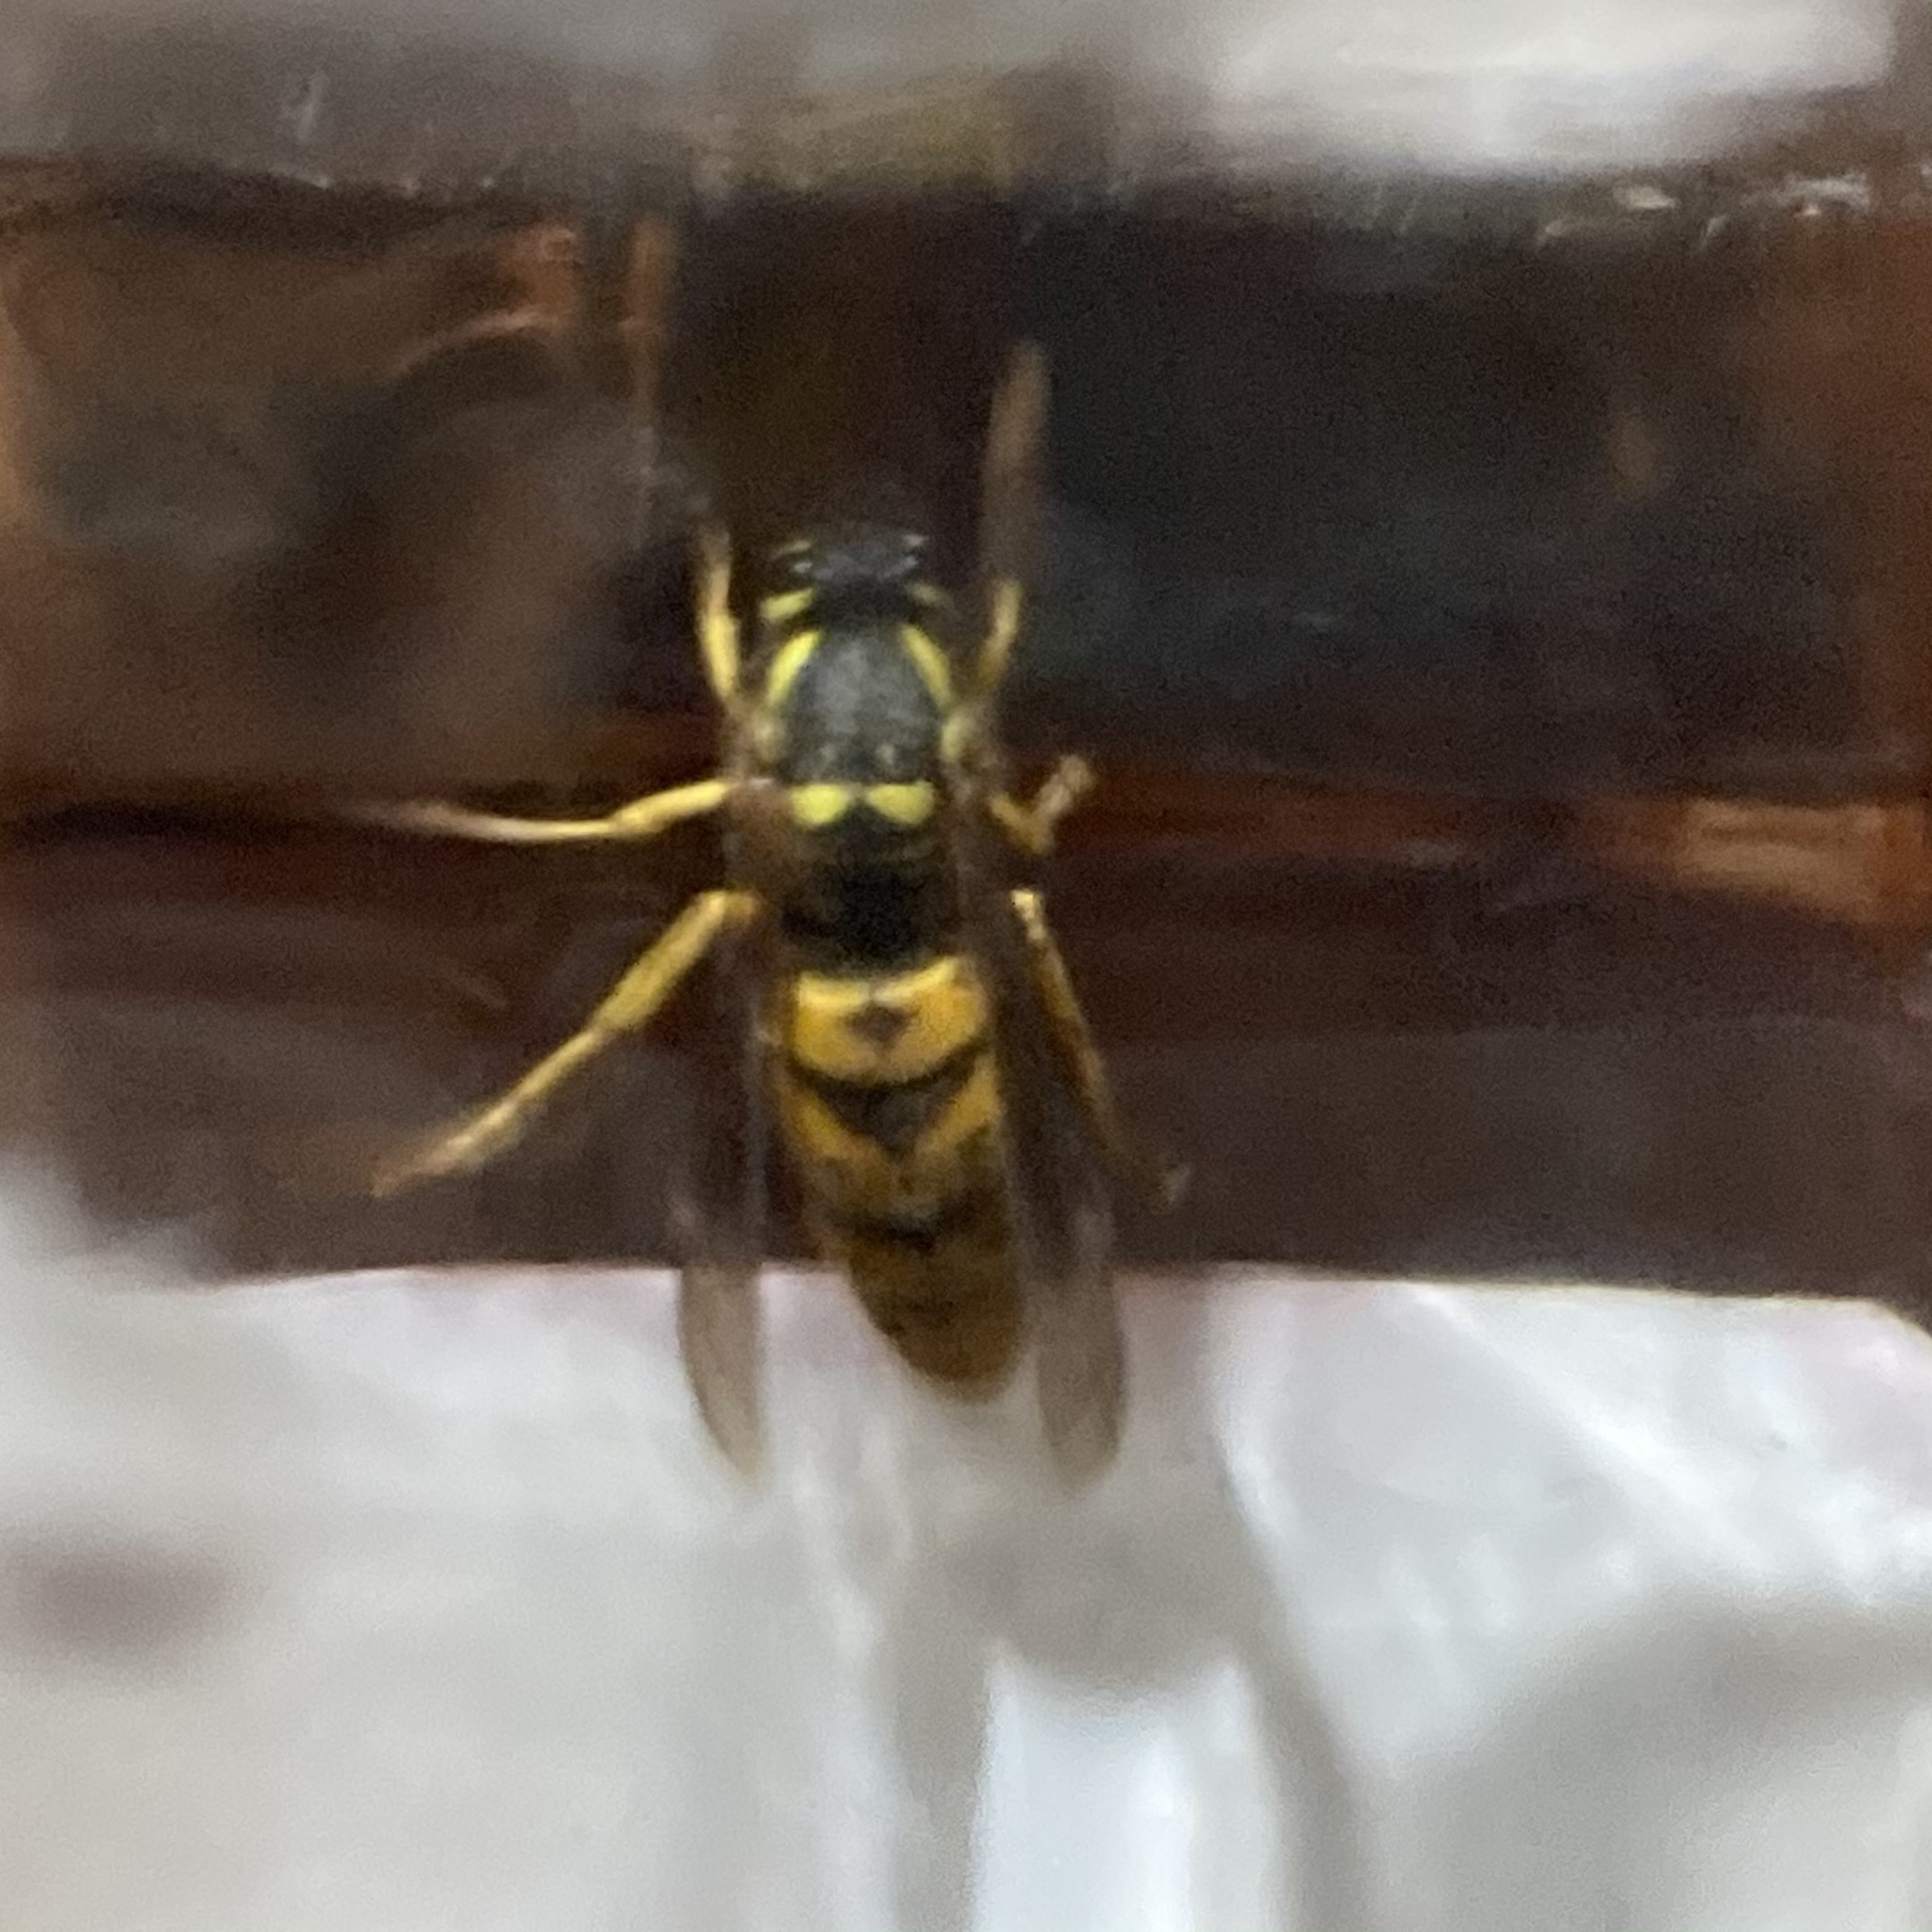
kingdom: Animalia
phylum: Arthropoda
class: Insecta
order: Hymenoptera
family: Vespidae
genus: Vespula
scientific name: Vespula maculifrons
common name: Eastern yellowjacket
